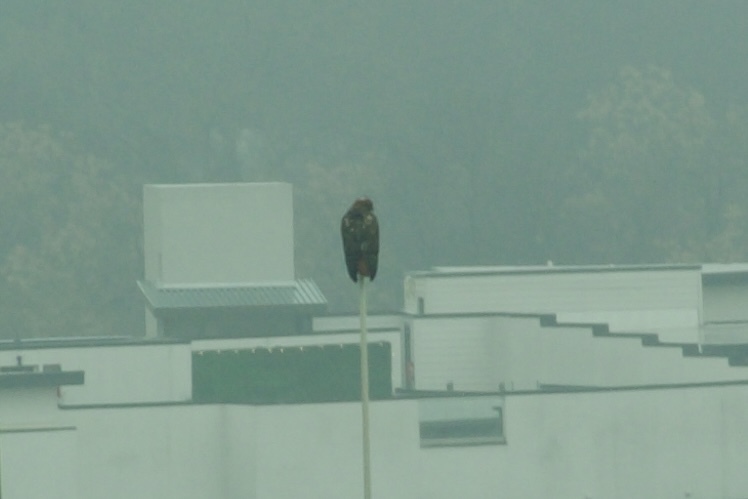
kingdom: Animalia
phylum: Chordata
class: Aves
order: Accipitriformes
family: Accipitridae
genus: Buteo
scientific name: Buteo jamaicensis
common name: Red-tailed hawk
